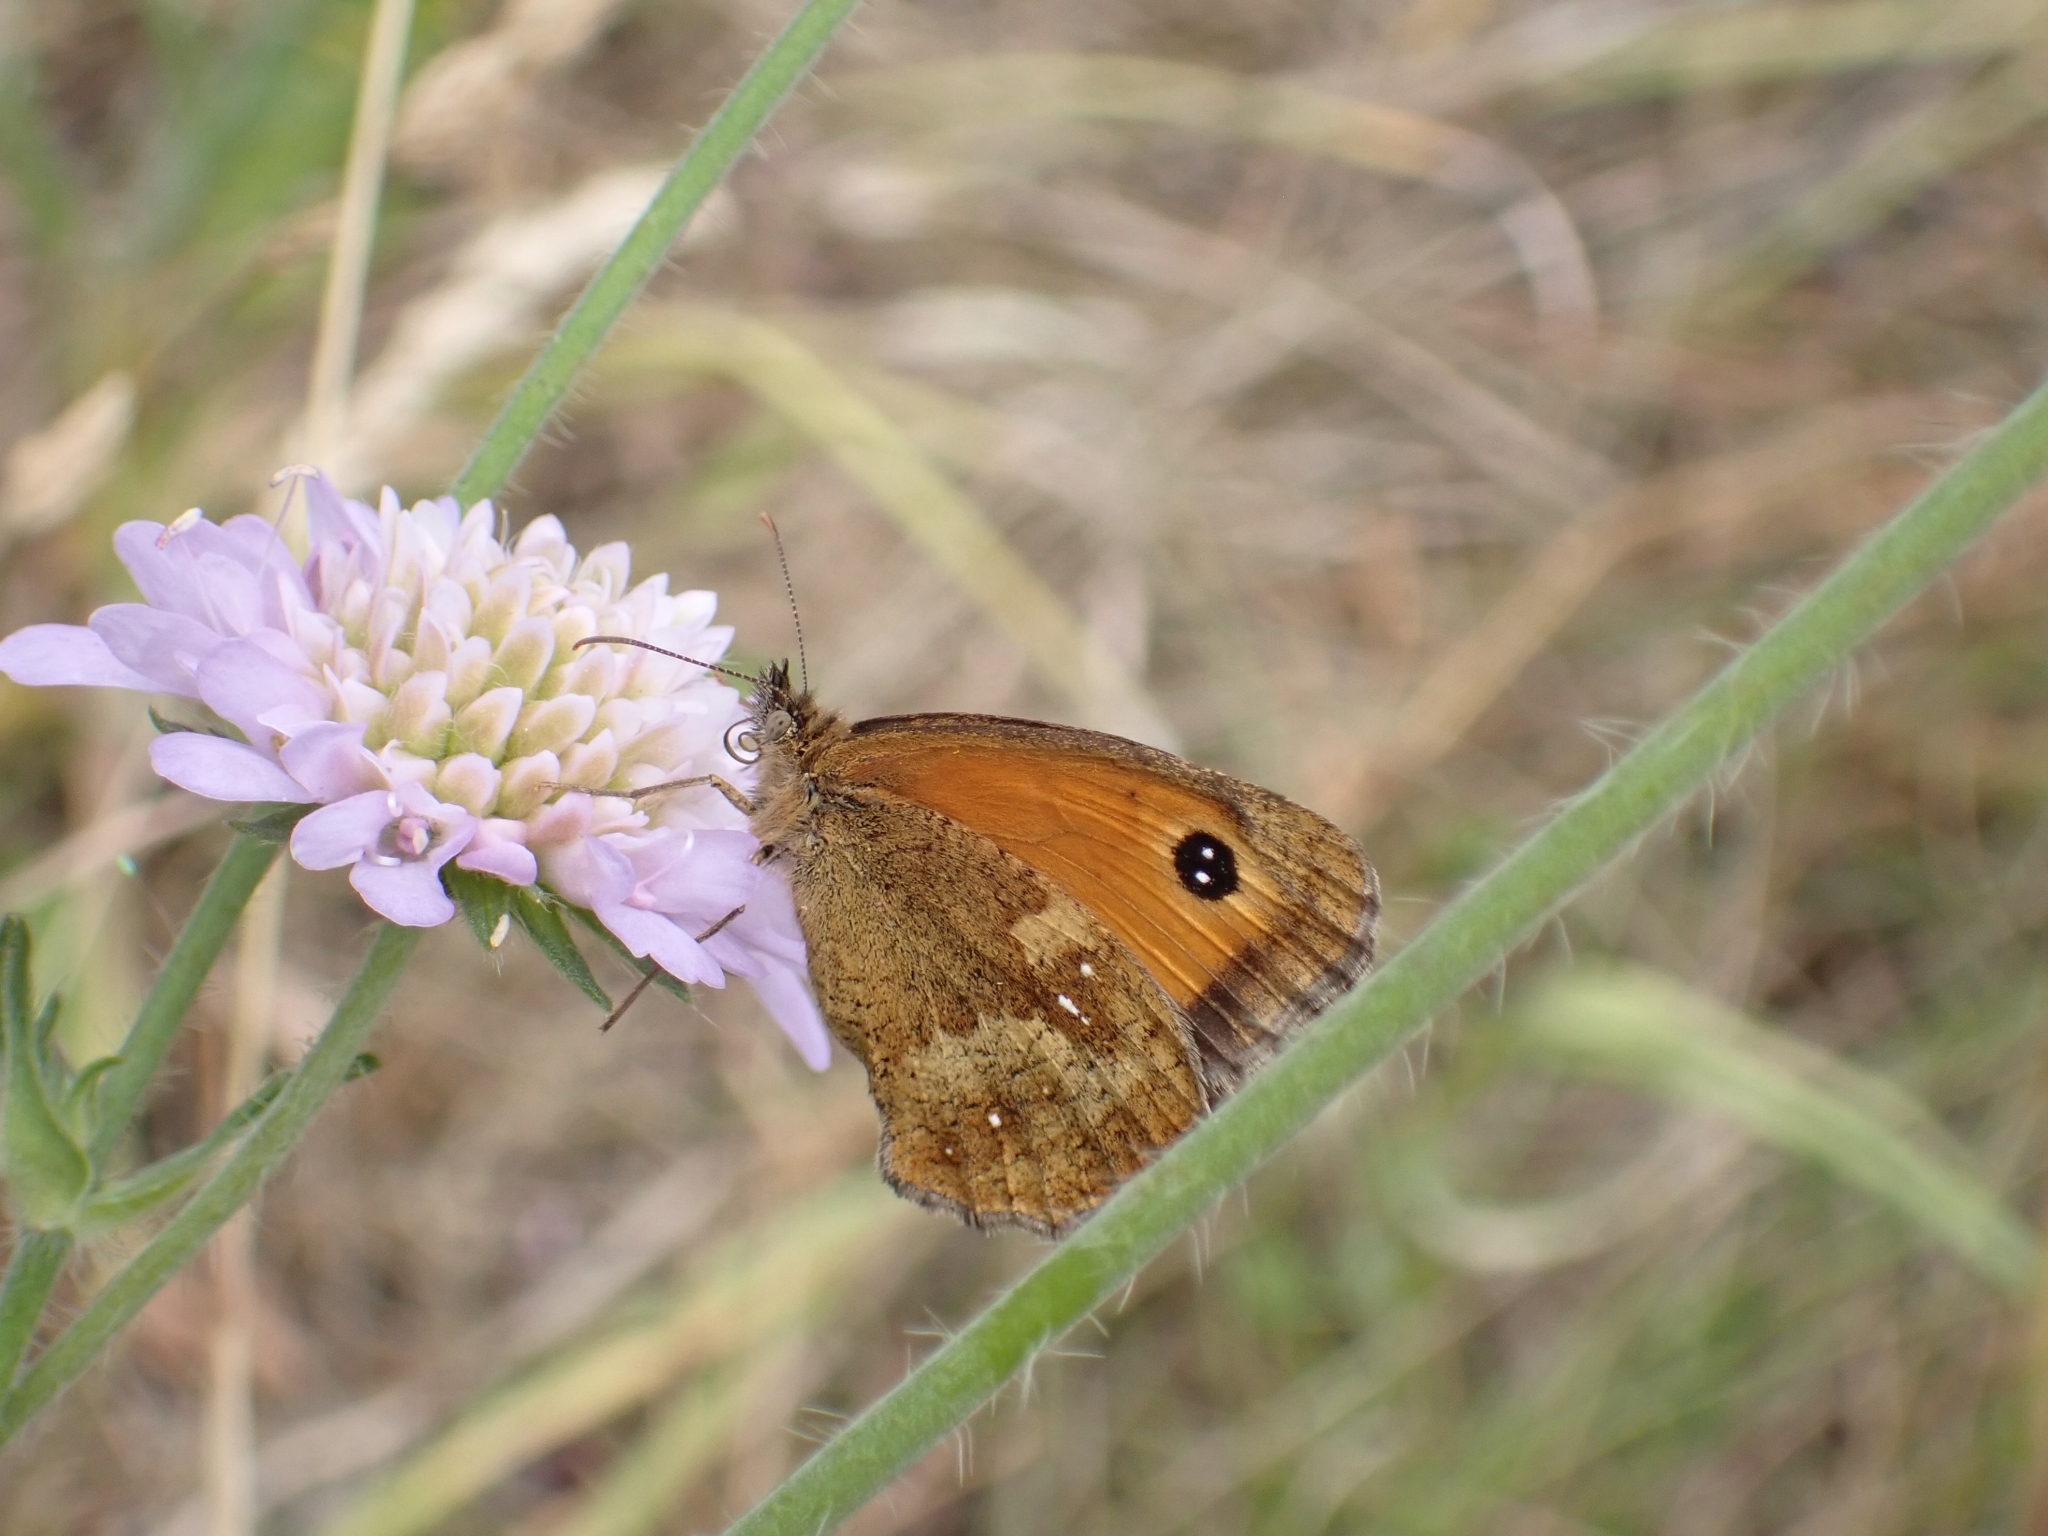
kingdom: Animalia
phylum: Arthropoda
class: Insecta
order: Lepidoptera
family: Nymphalidae
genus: Pyronia
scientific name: Pyronia tithonus
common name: Gatekeeper
